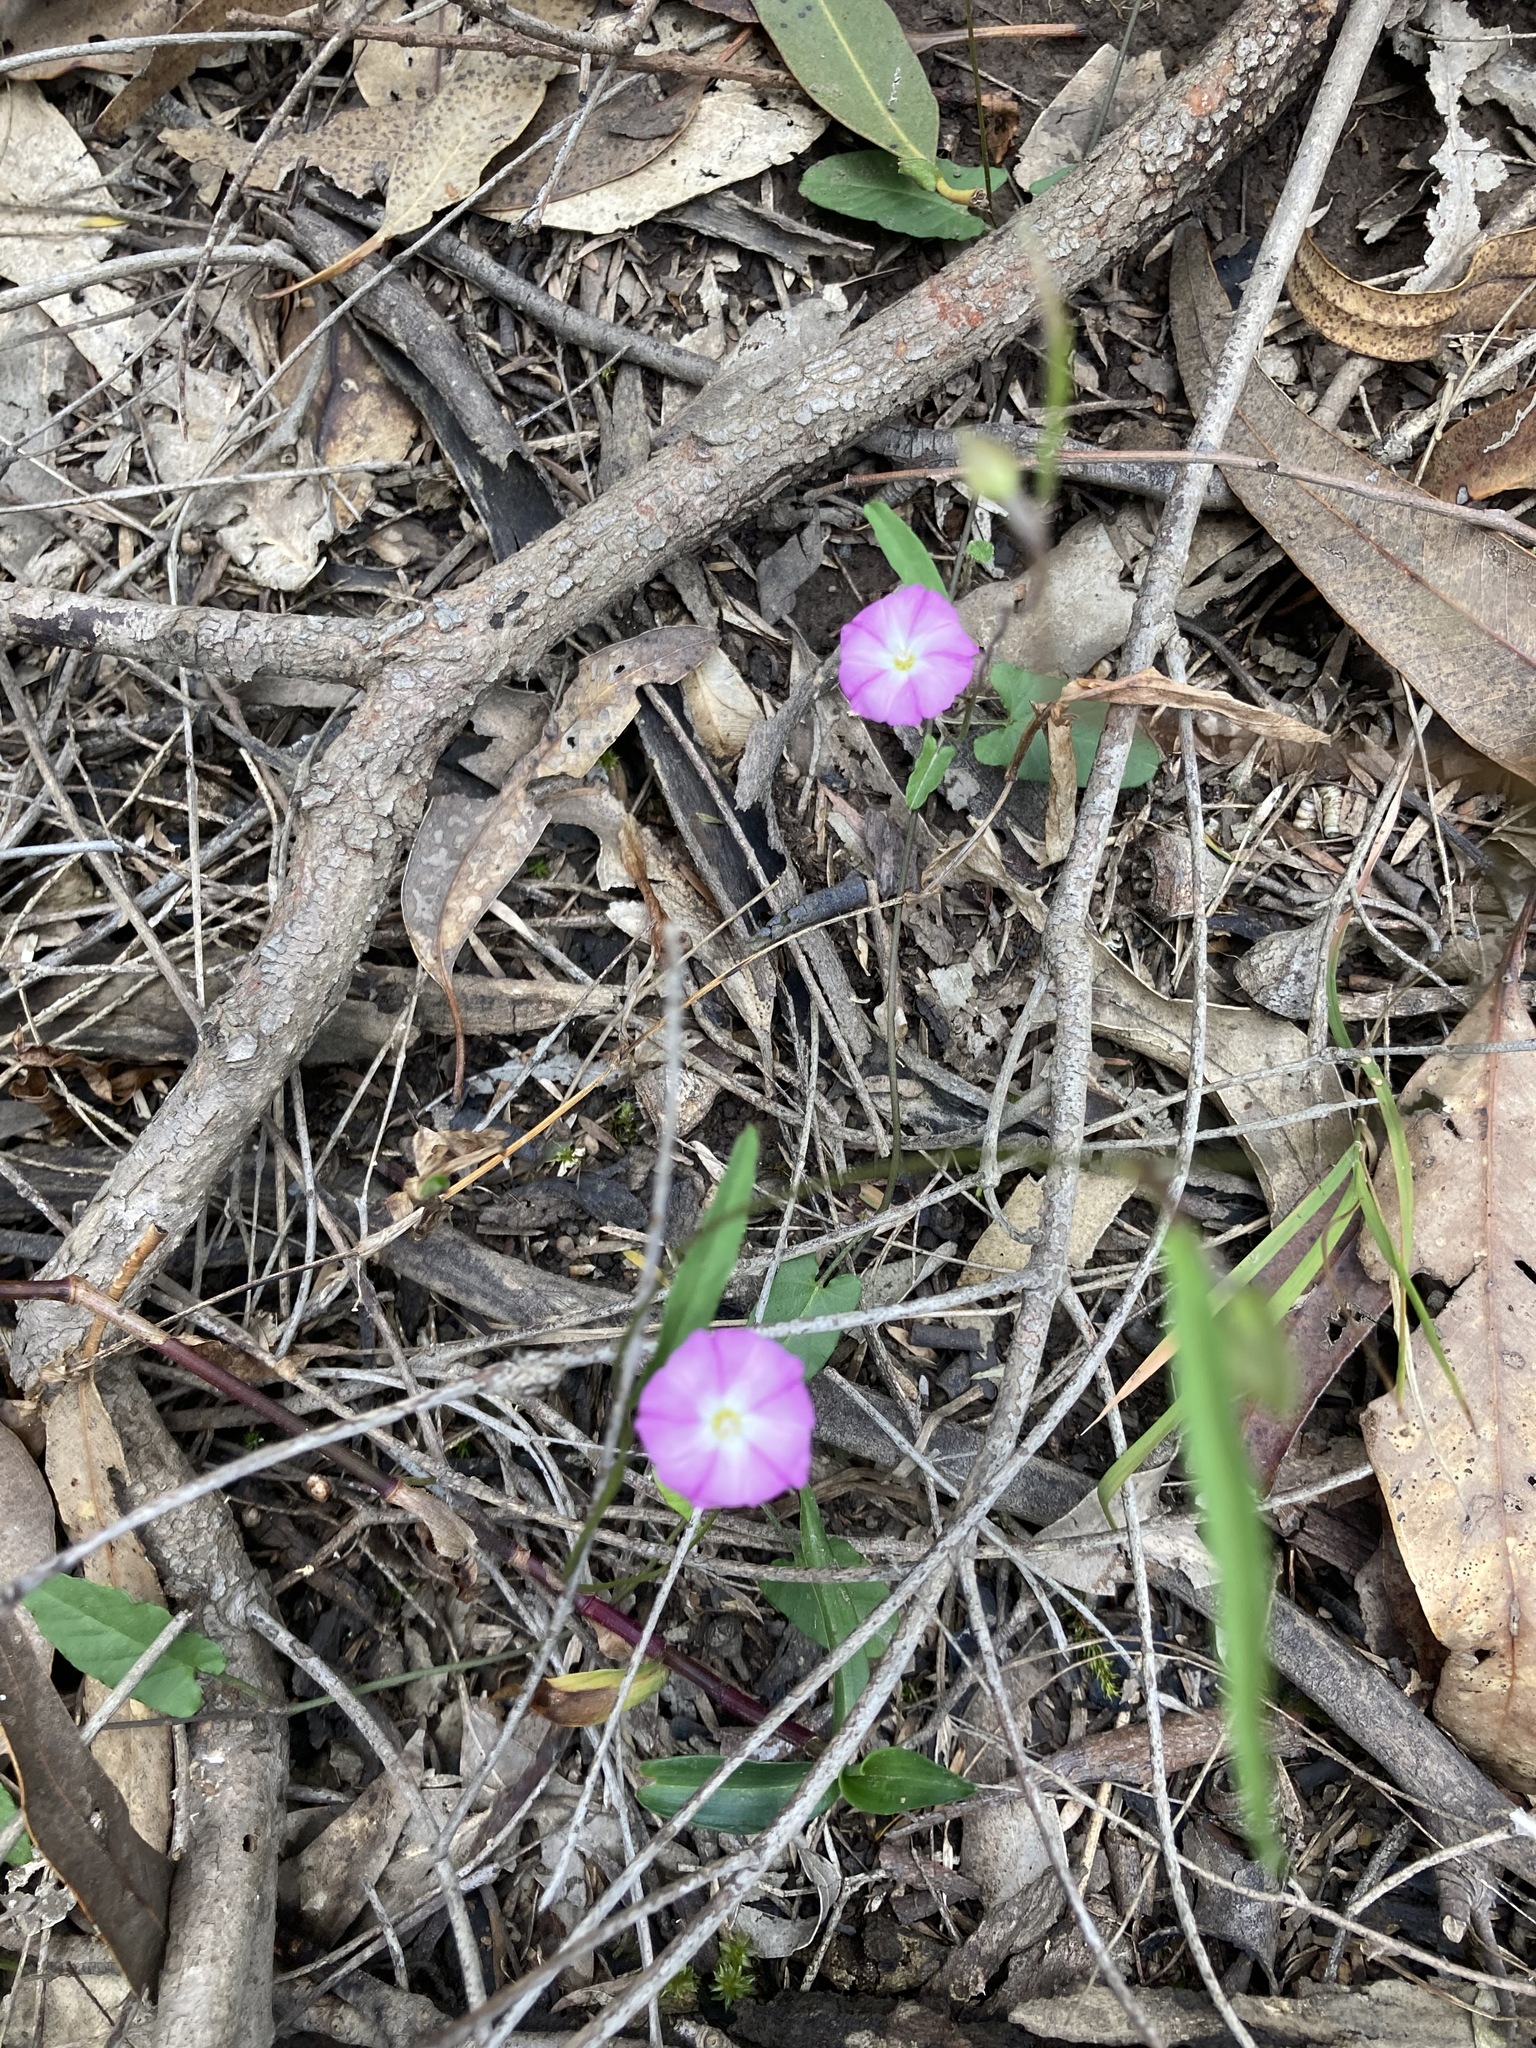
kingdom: Plantae
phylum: Tracheophyta
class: Magnoliopsida
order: Solanales
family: Convolvulaceae
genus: Polymeria
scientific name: Polymeria calycina
